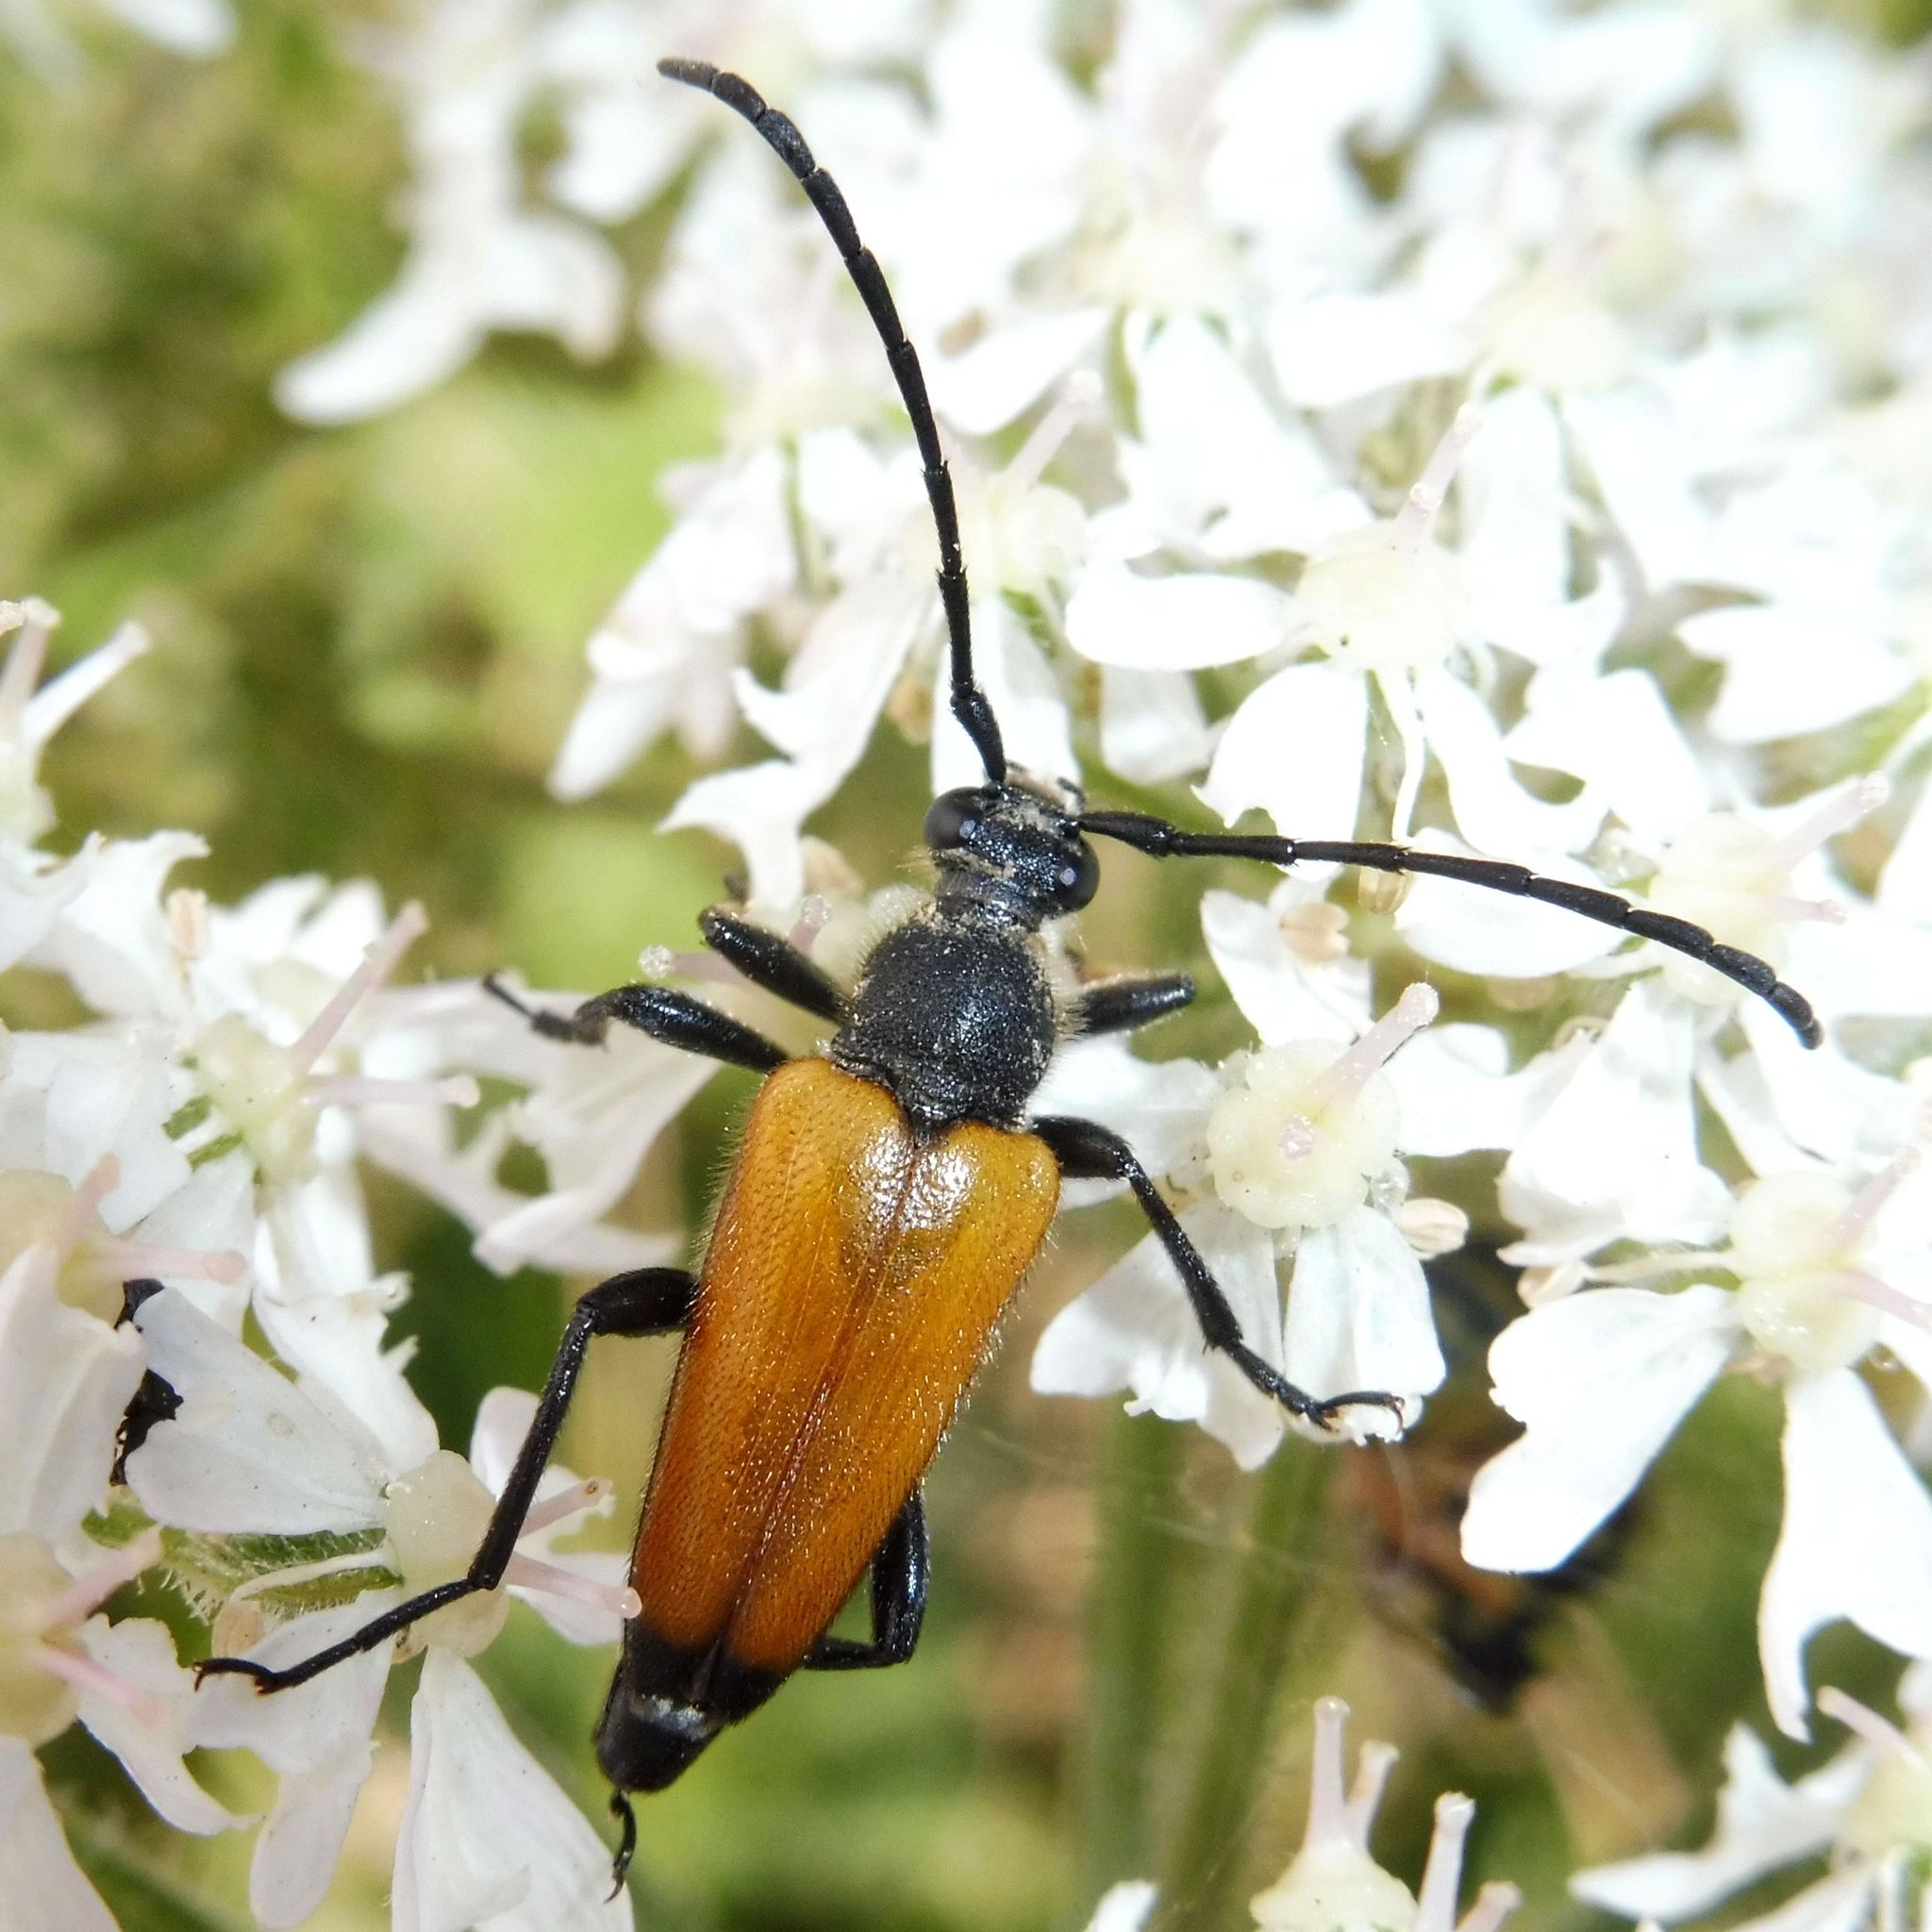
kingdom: Animalia
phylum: Arthropoda
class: Insecta
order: Coleoptera
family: Cerambycidae
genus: Paracorymbia
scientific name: Paracorymbia fulva
